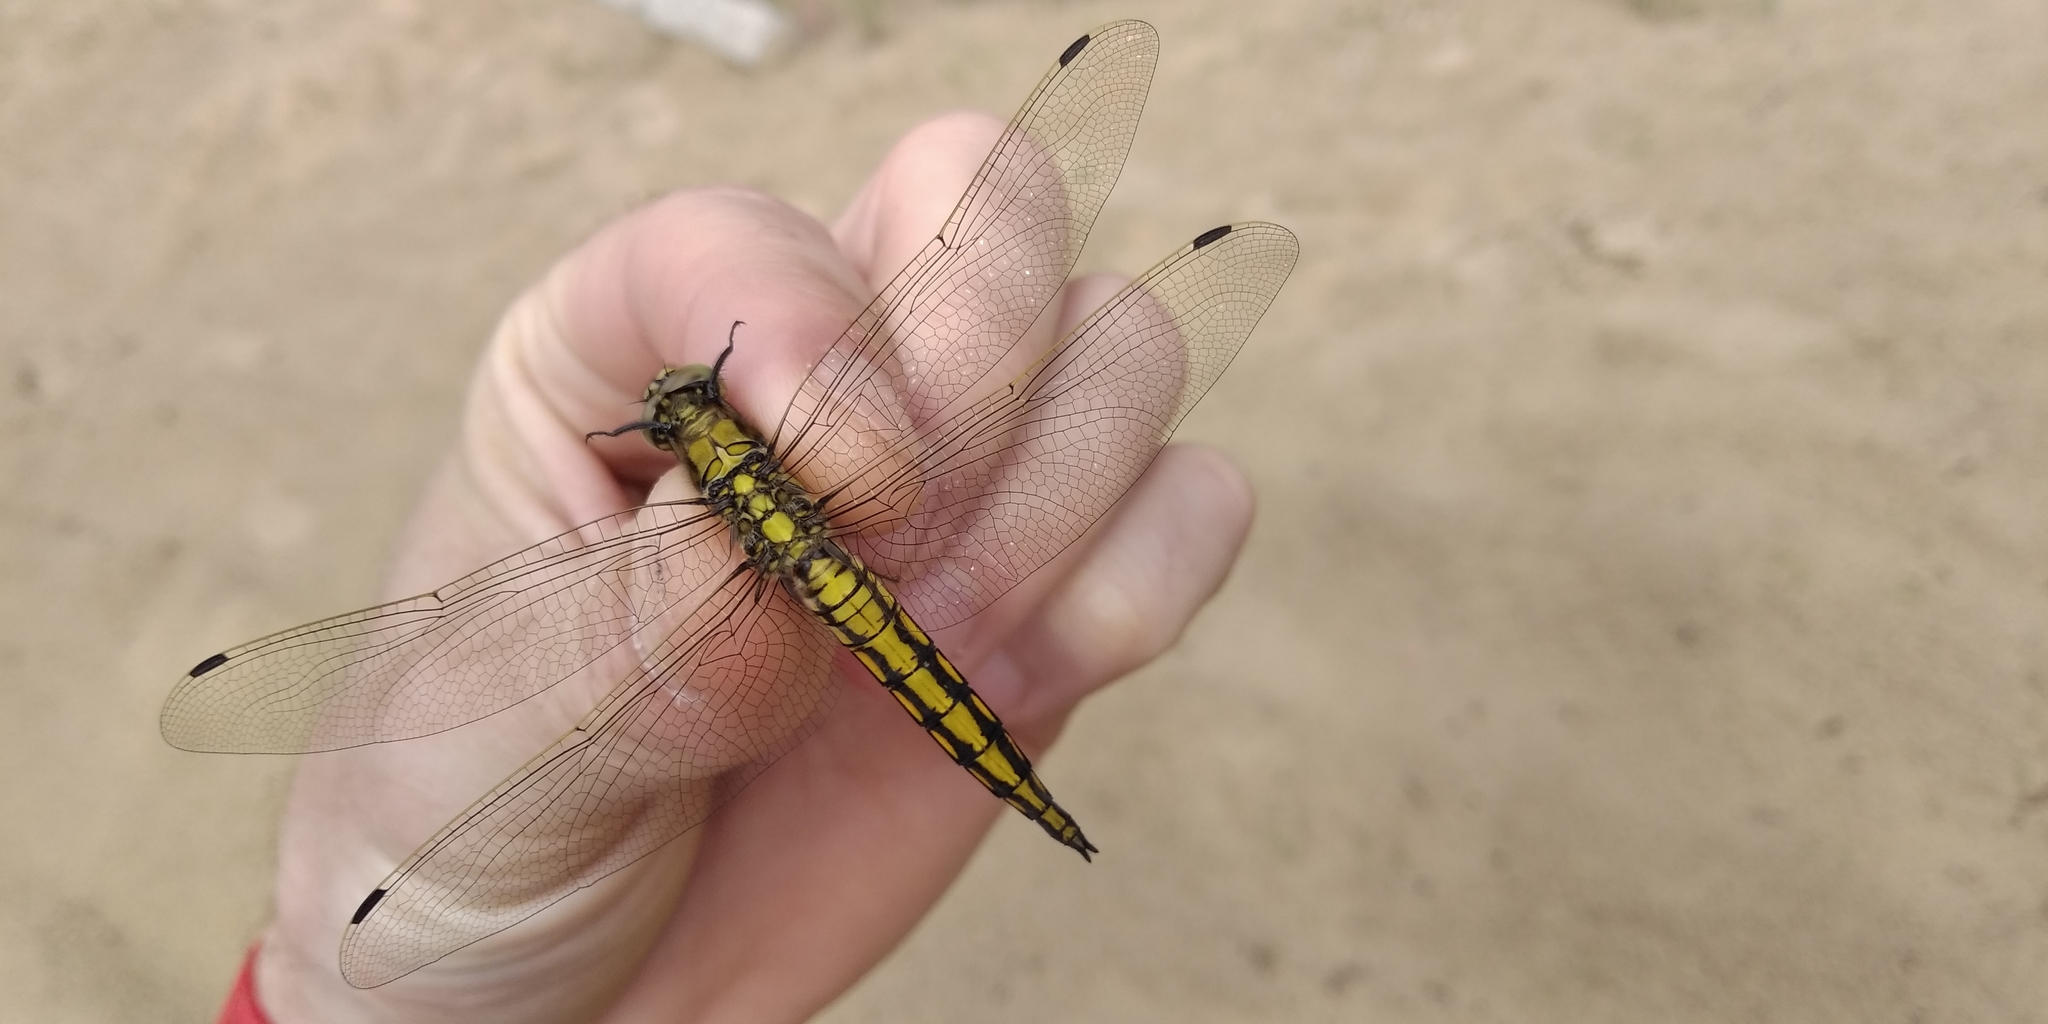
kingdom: Animalia
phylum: Arthropoda
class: Insecta
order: Odonata
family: Libellulidae
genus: Orthetrum
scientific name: Orthetrum cancellatum
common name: Black-tailed skimmer
